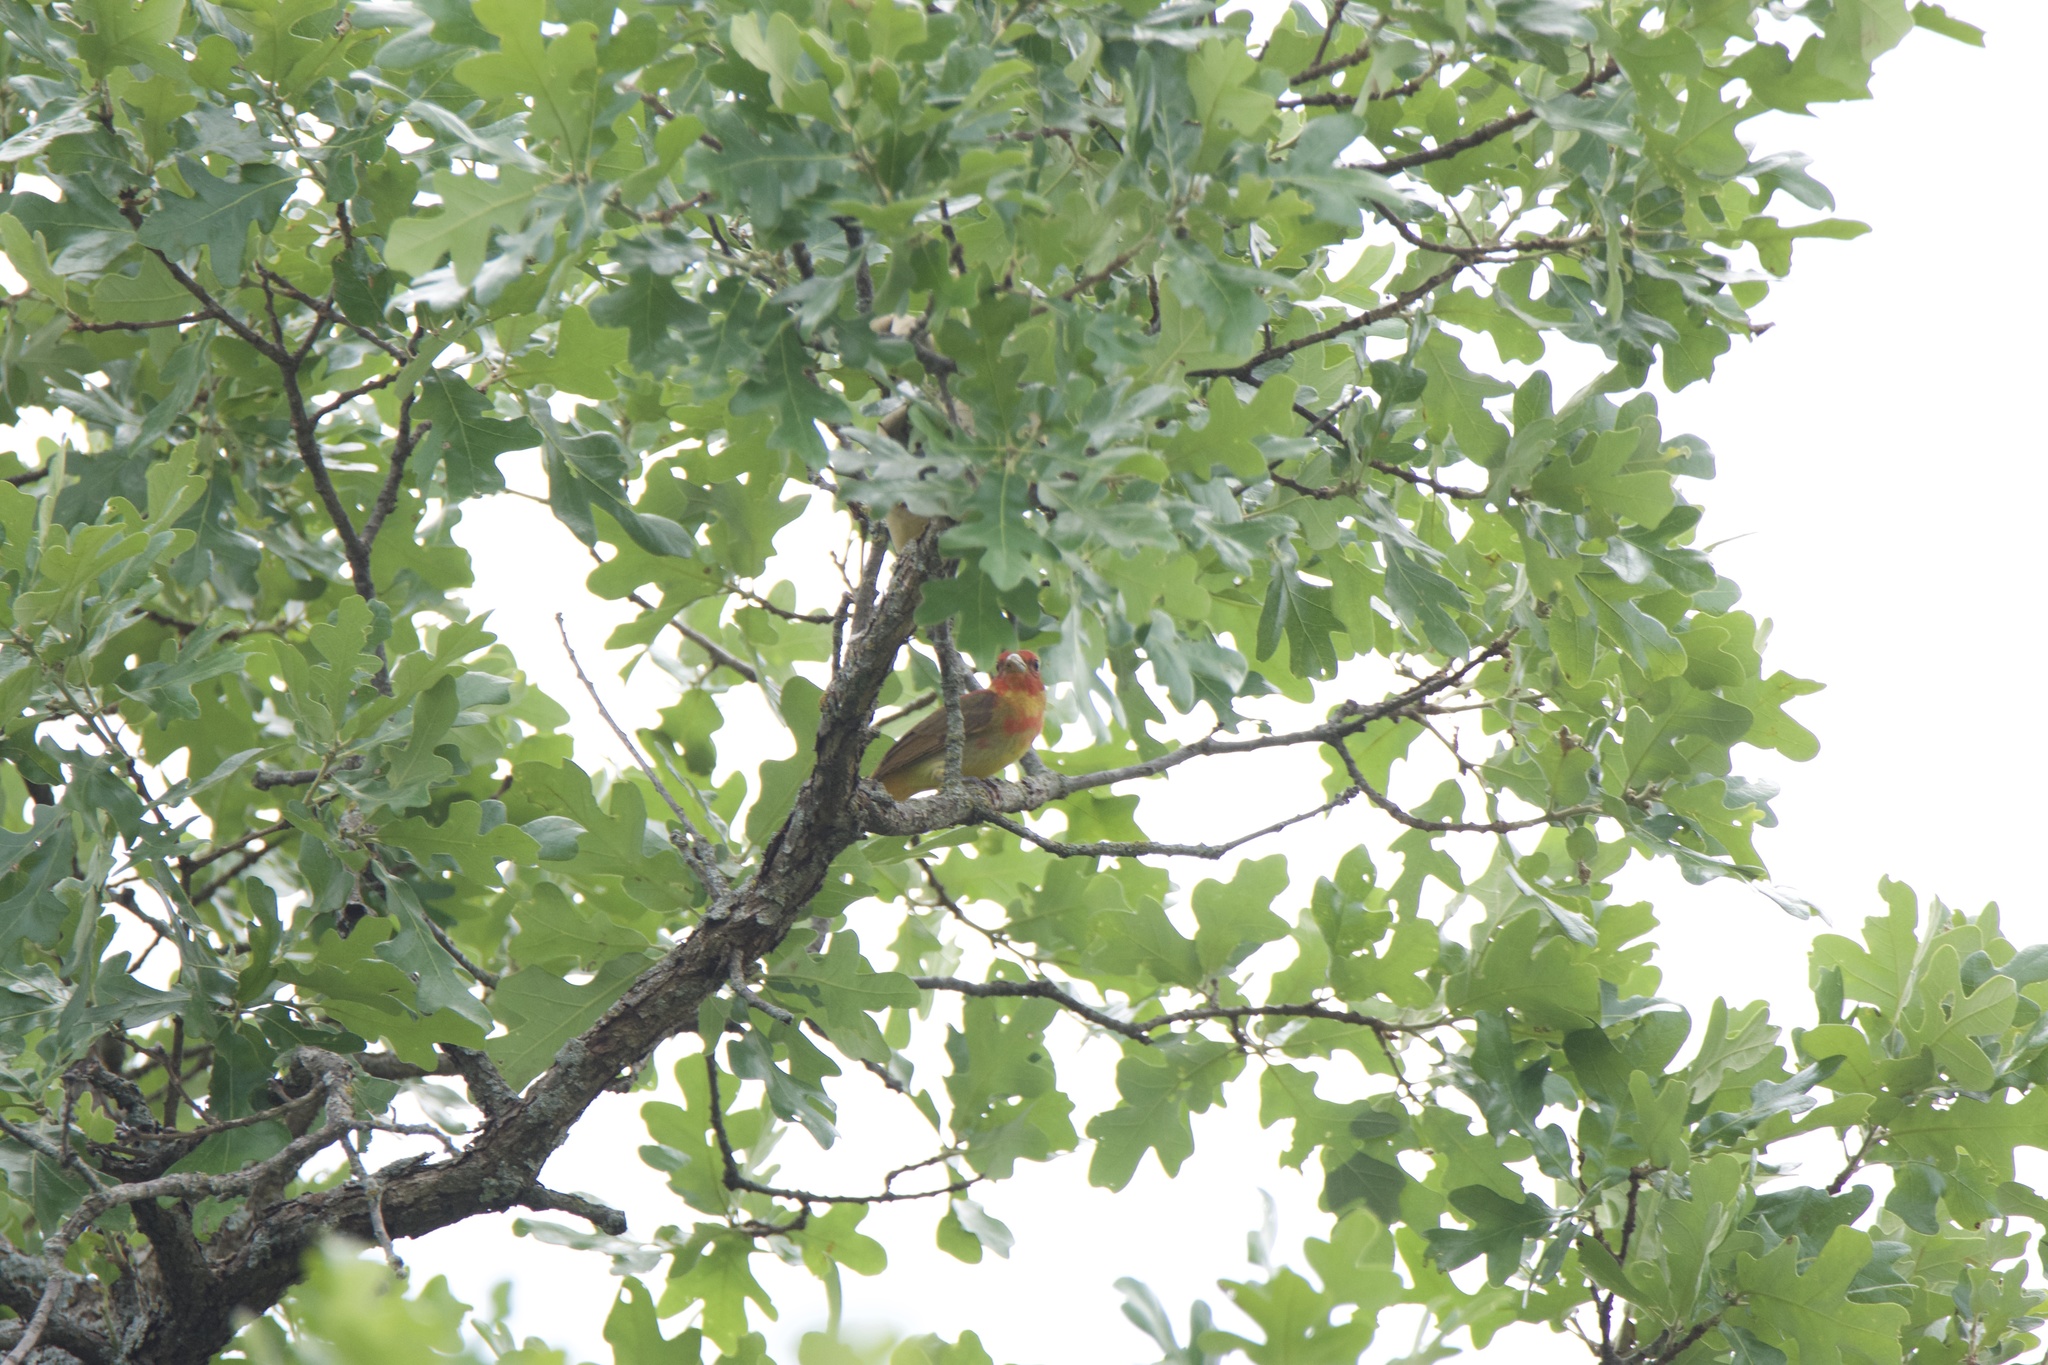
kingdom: Animalia
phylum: Chordata
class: Aves
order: Passeriformes
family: Cardinalidae
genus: Piranga
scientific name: Piranga rubra
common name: Summer tanager
